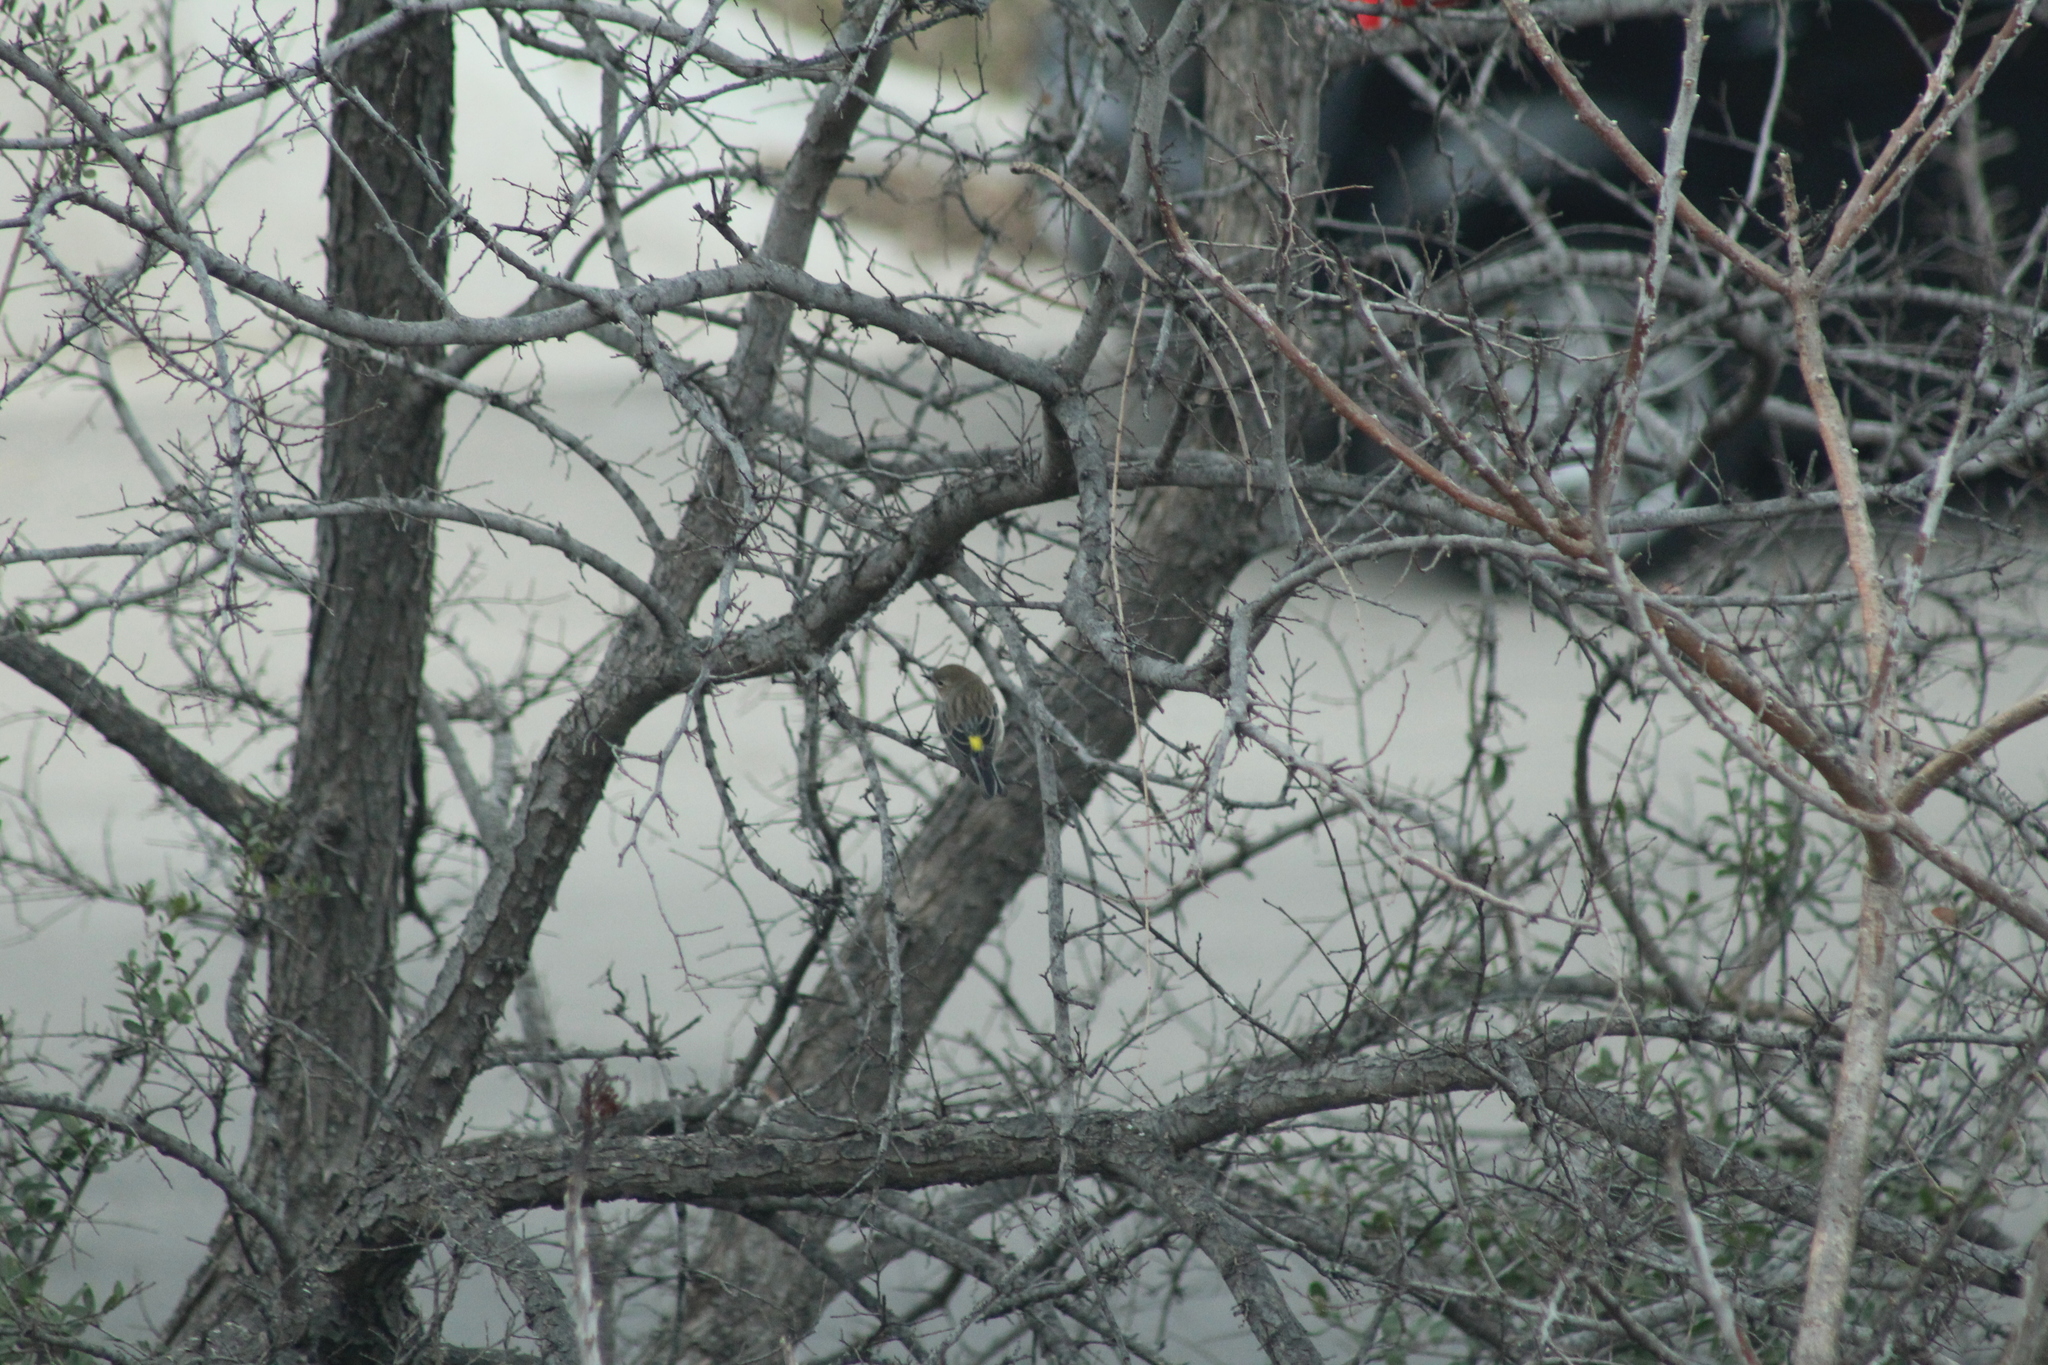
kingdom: Animalia
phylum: Chordata
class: Aves
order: Passeriformes
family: Parulidae
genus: Setophaga
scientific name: Setophaga coronata
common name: Myrtle warbler
